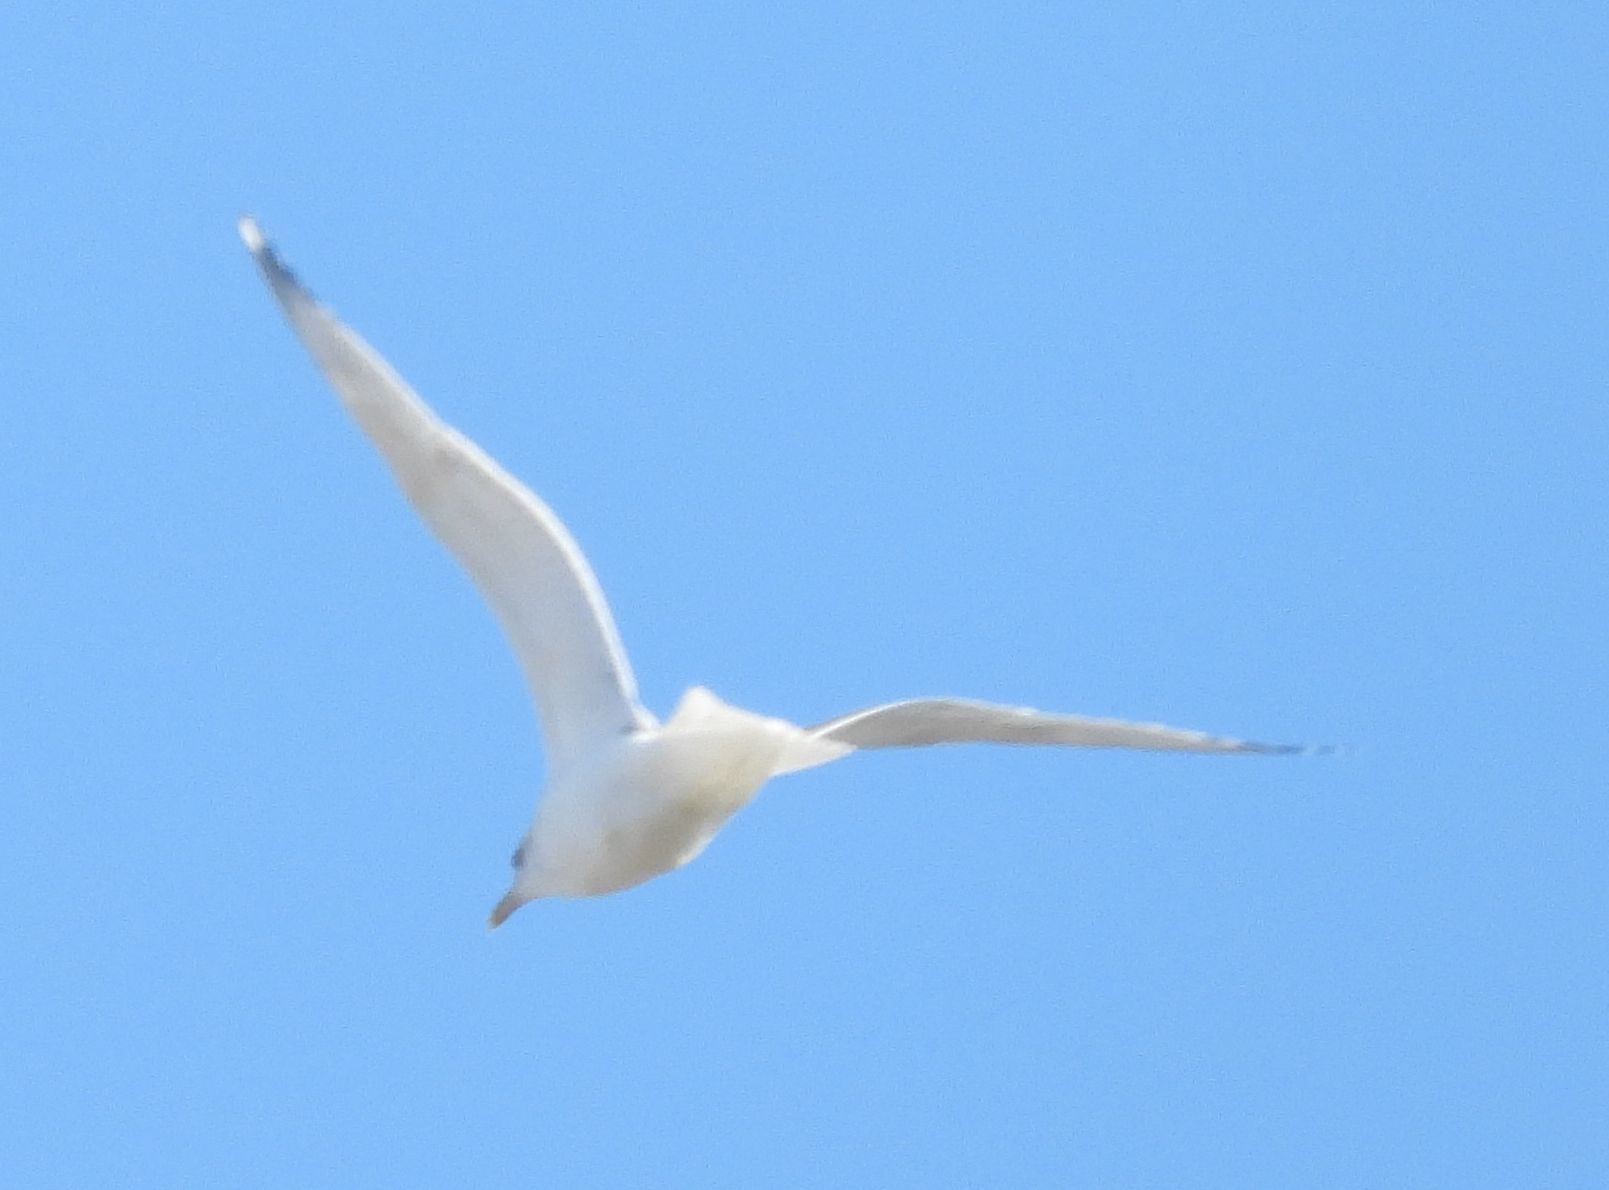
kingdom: Animalia
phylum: Chordata
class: Aves
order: Charadriiformes
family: Laridae
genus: Larus
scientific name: Larus argentatus
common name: Herring gull
